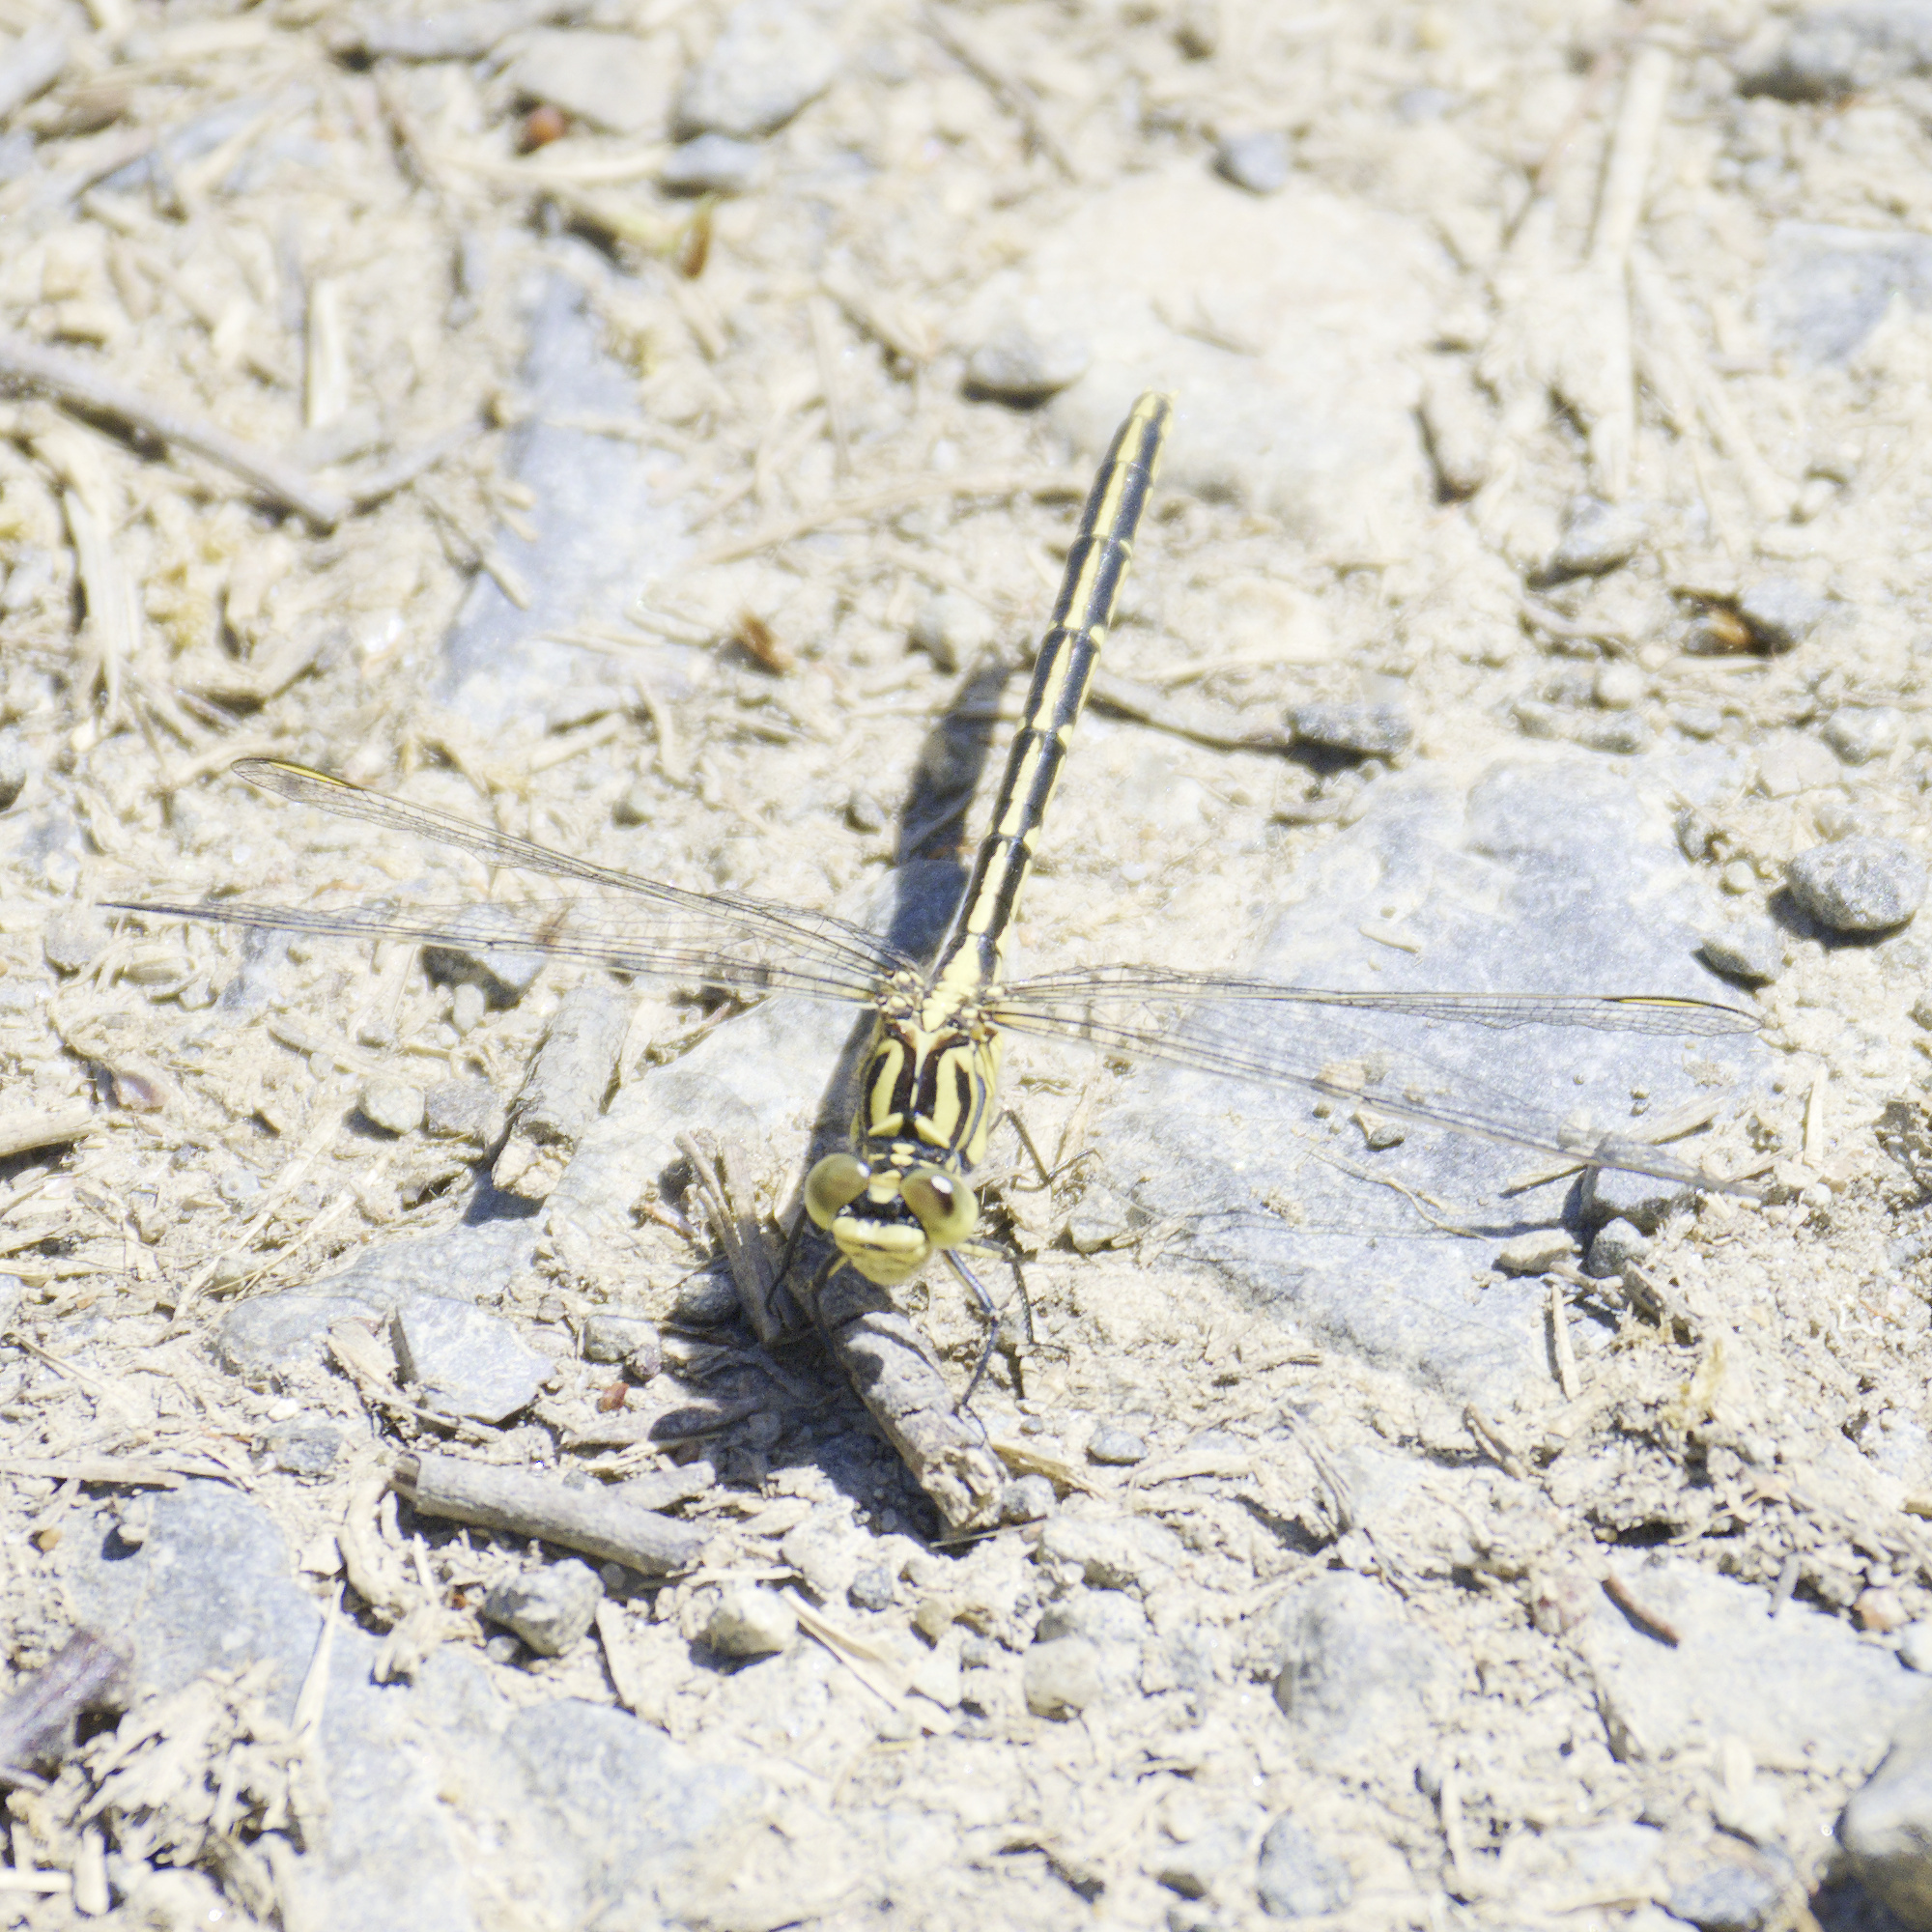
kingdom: Animalia
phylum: Arthropoda
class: Insecta
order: Odonata
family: Gomphidae
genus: Austrogomphus
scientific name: Austrogomphus guerini
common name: Yellow-striped hunter
